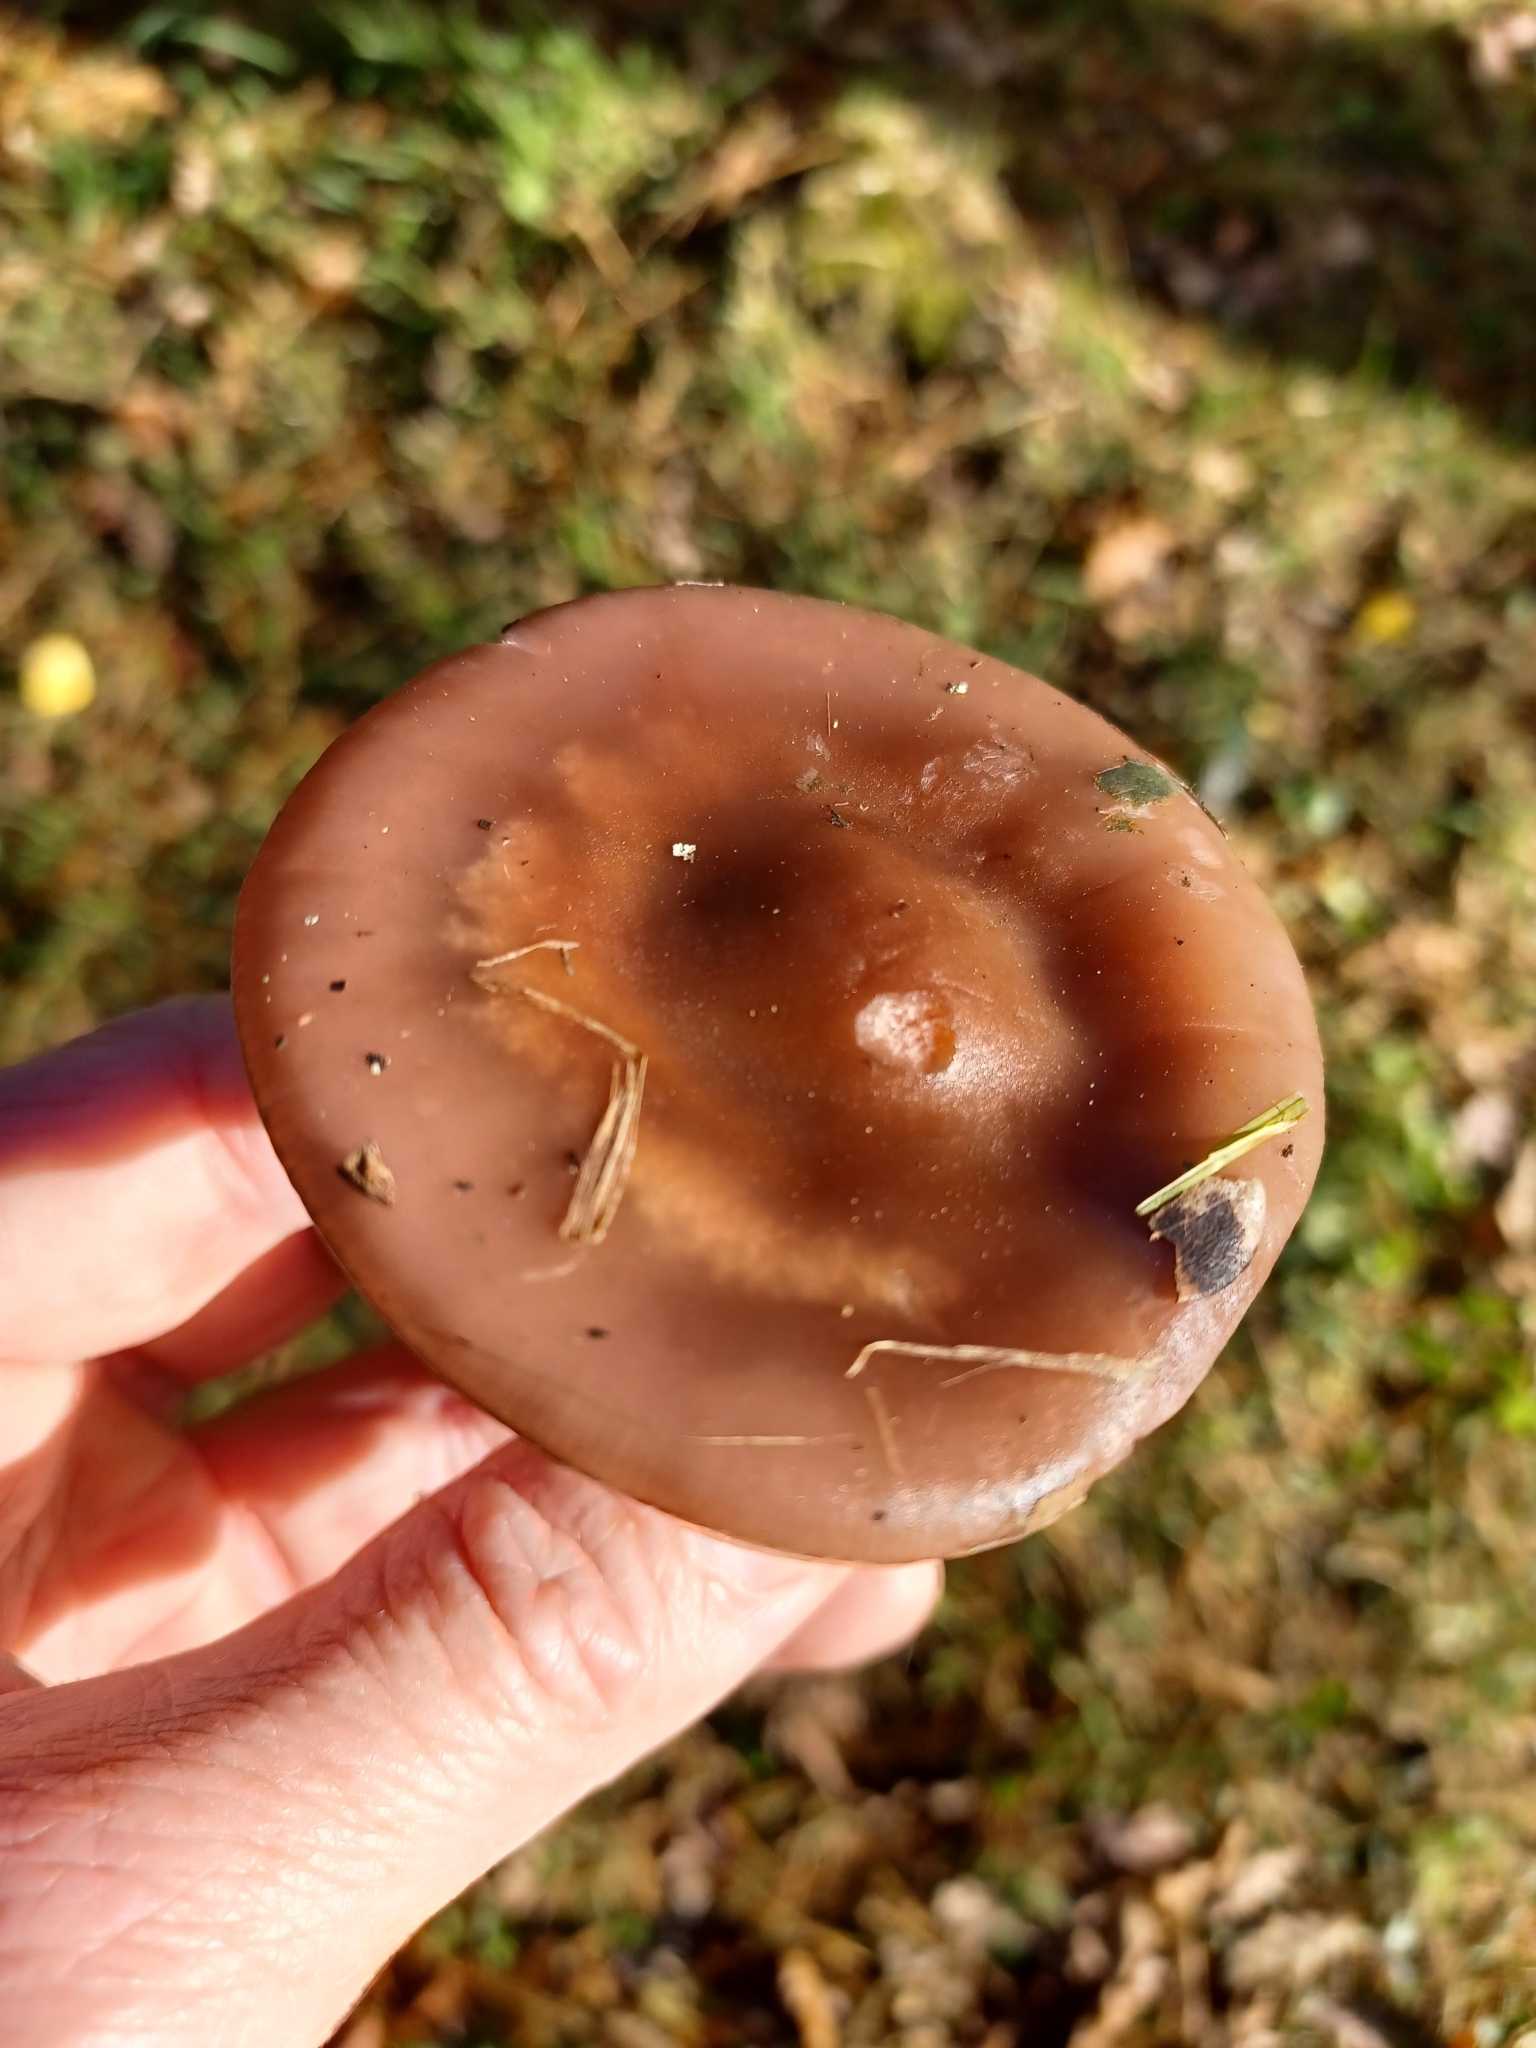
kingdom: Fungi
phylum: Basidiomycota
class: Agaricomycetes
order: Agaricales
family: Tricholomataceae
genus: Collybia
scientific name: Collybia
